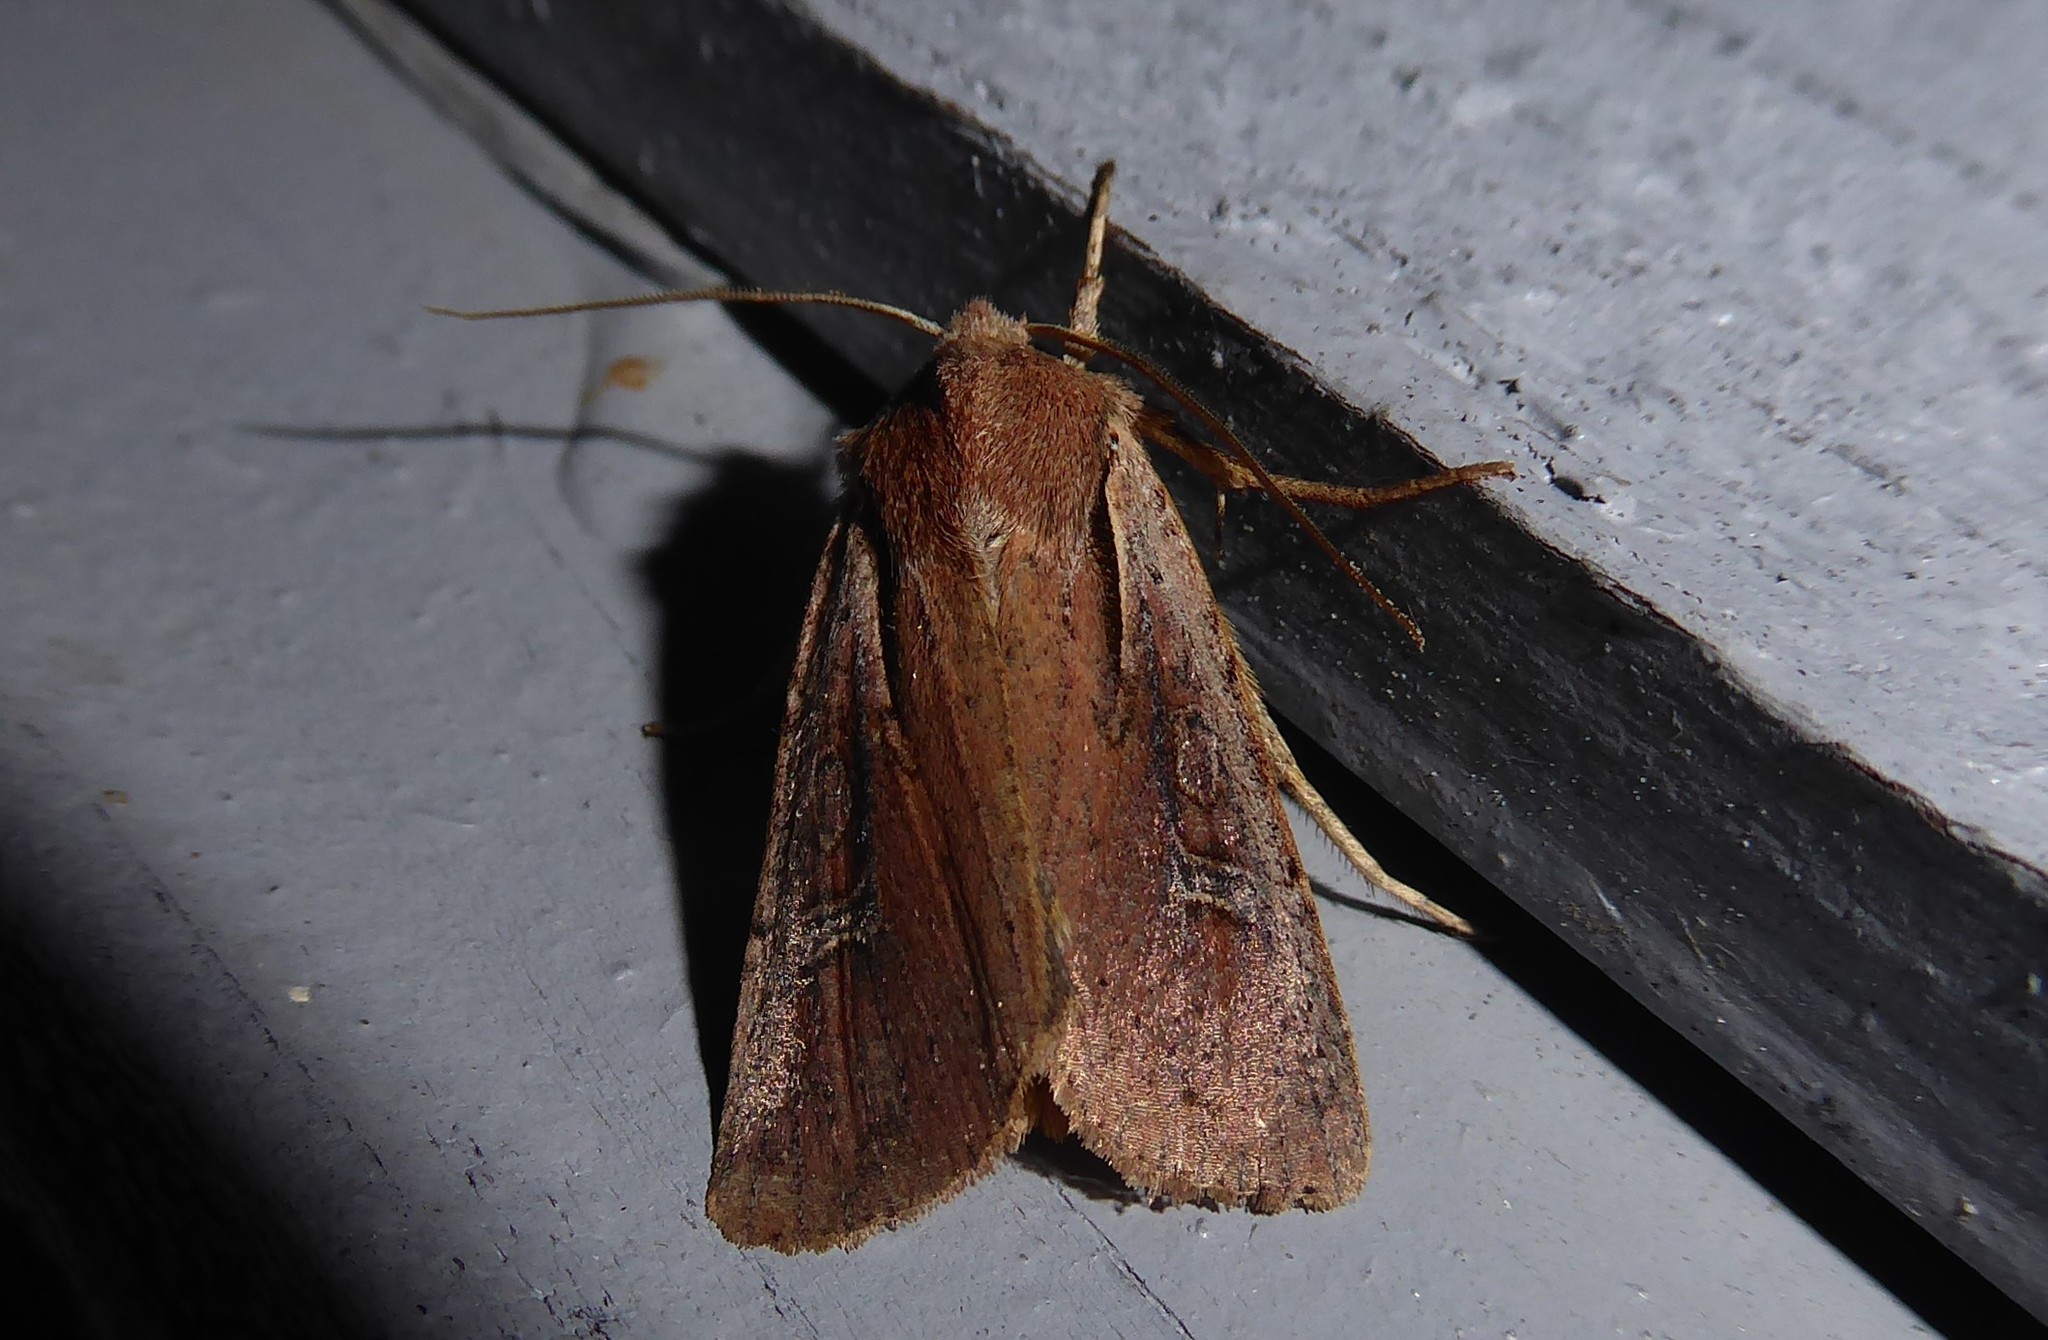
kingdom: Animalia
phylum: Arthropoda
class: Insecta
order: Lepidoptera
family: Noctuidae
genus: Ichneutica
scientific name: Ichneutica atristriga
